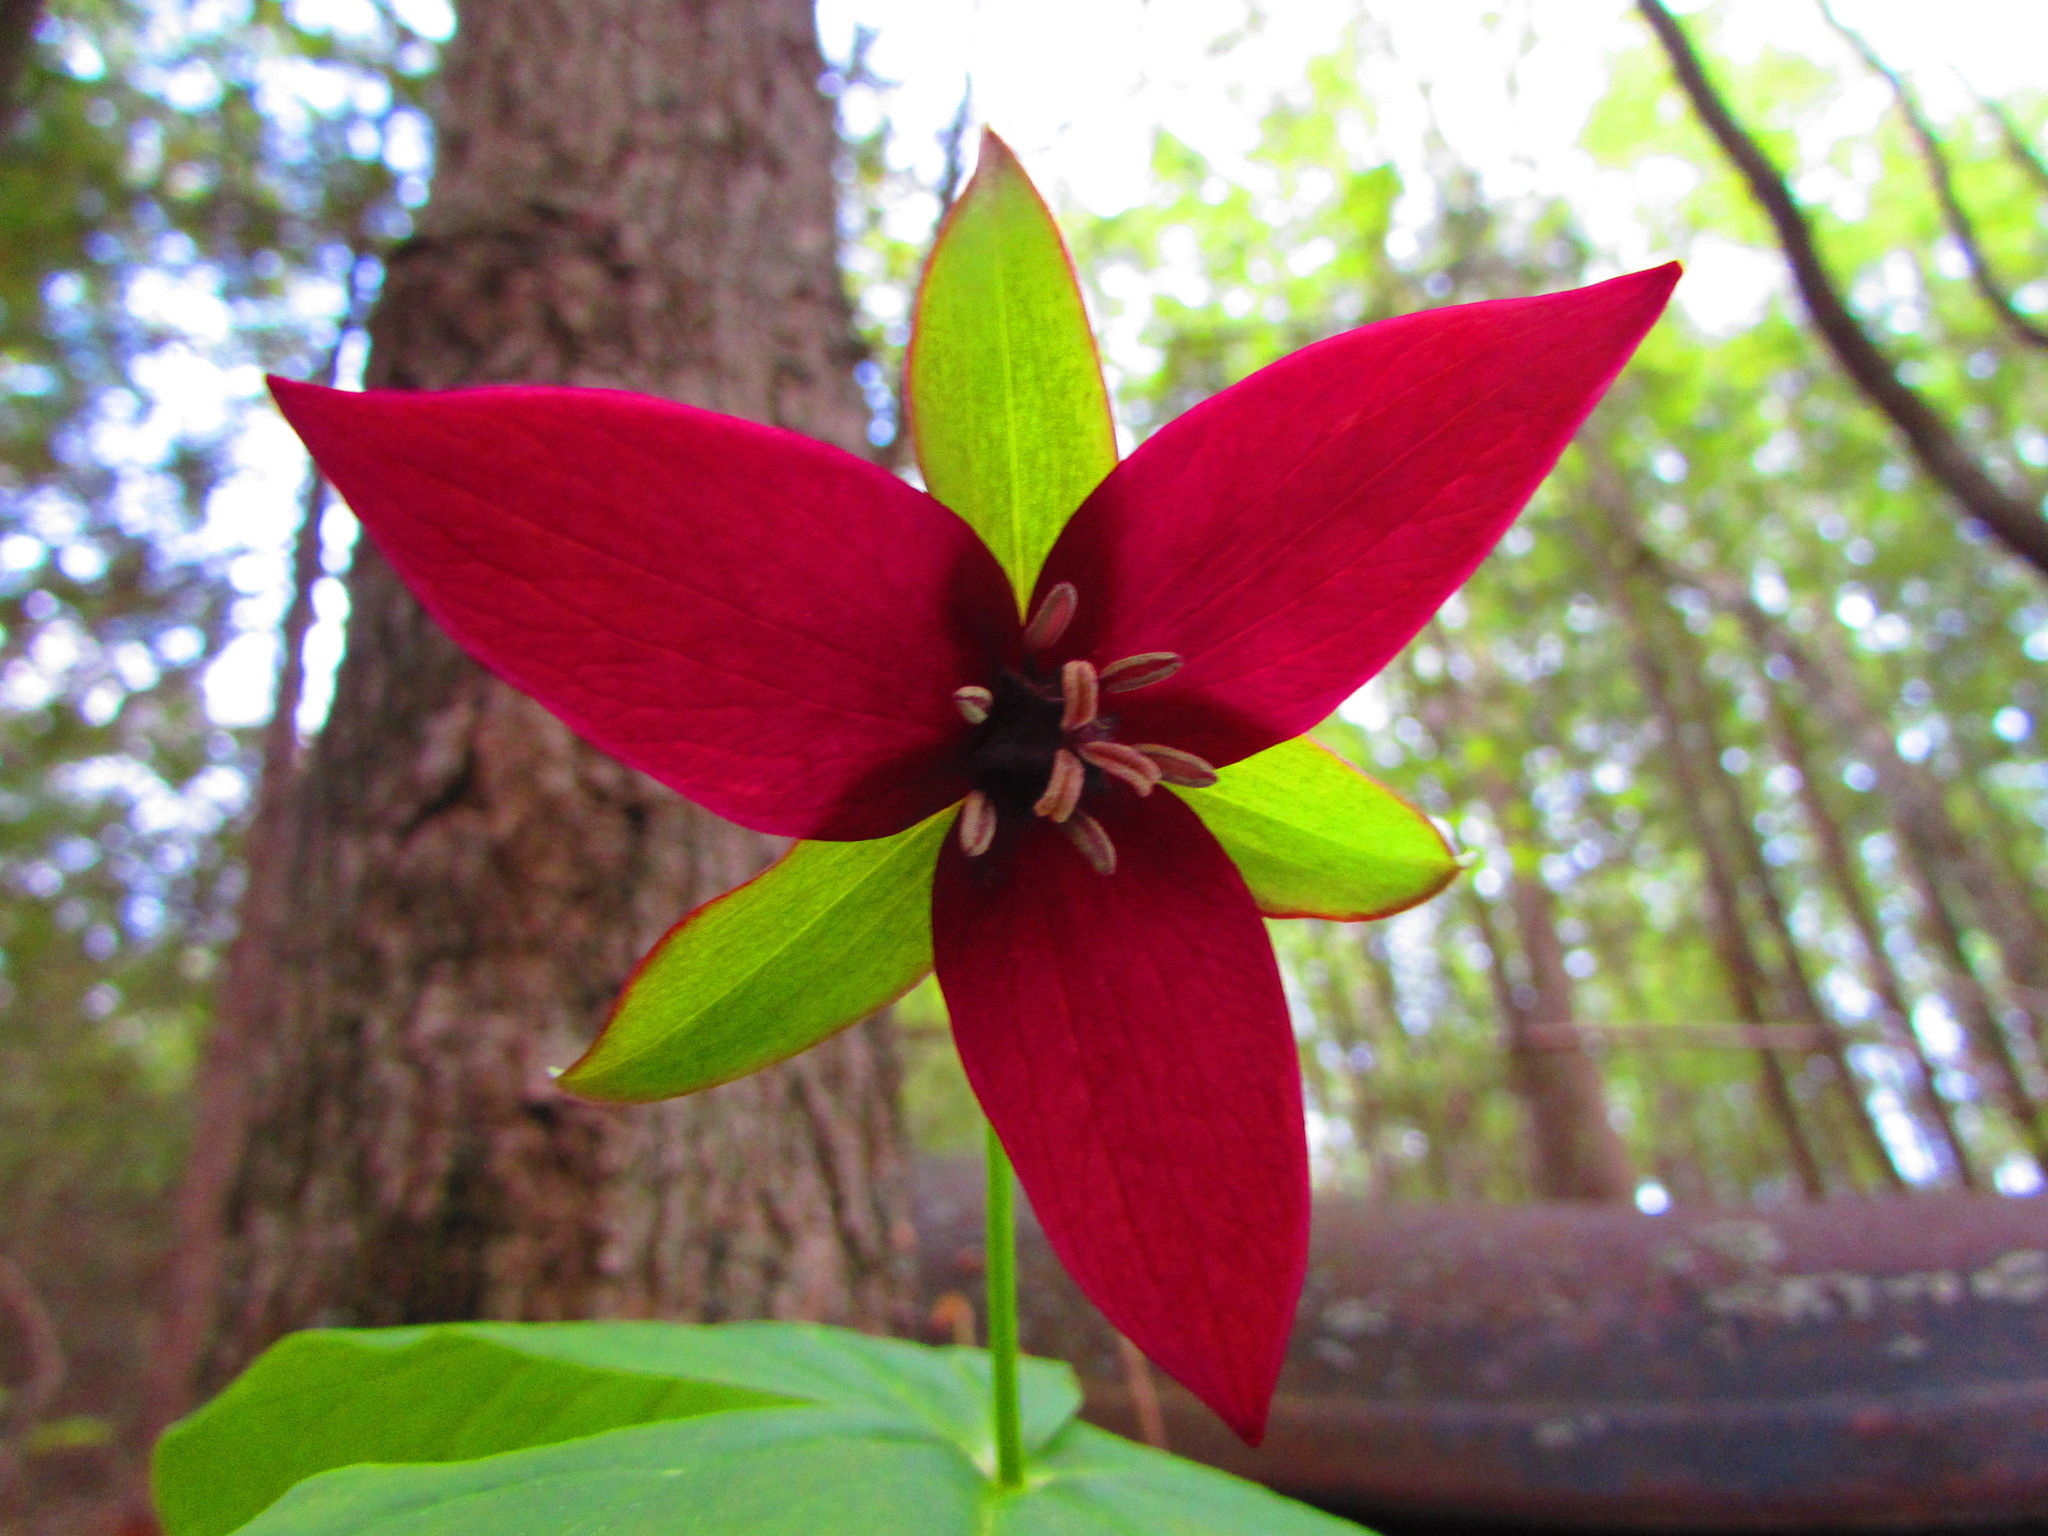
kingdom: Plantae
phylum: Tracheophyta
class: Liliopsida
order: Liliales
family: Melanthiaceae
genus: Trillium
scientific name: Trillium erectum
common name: Purple trillium
